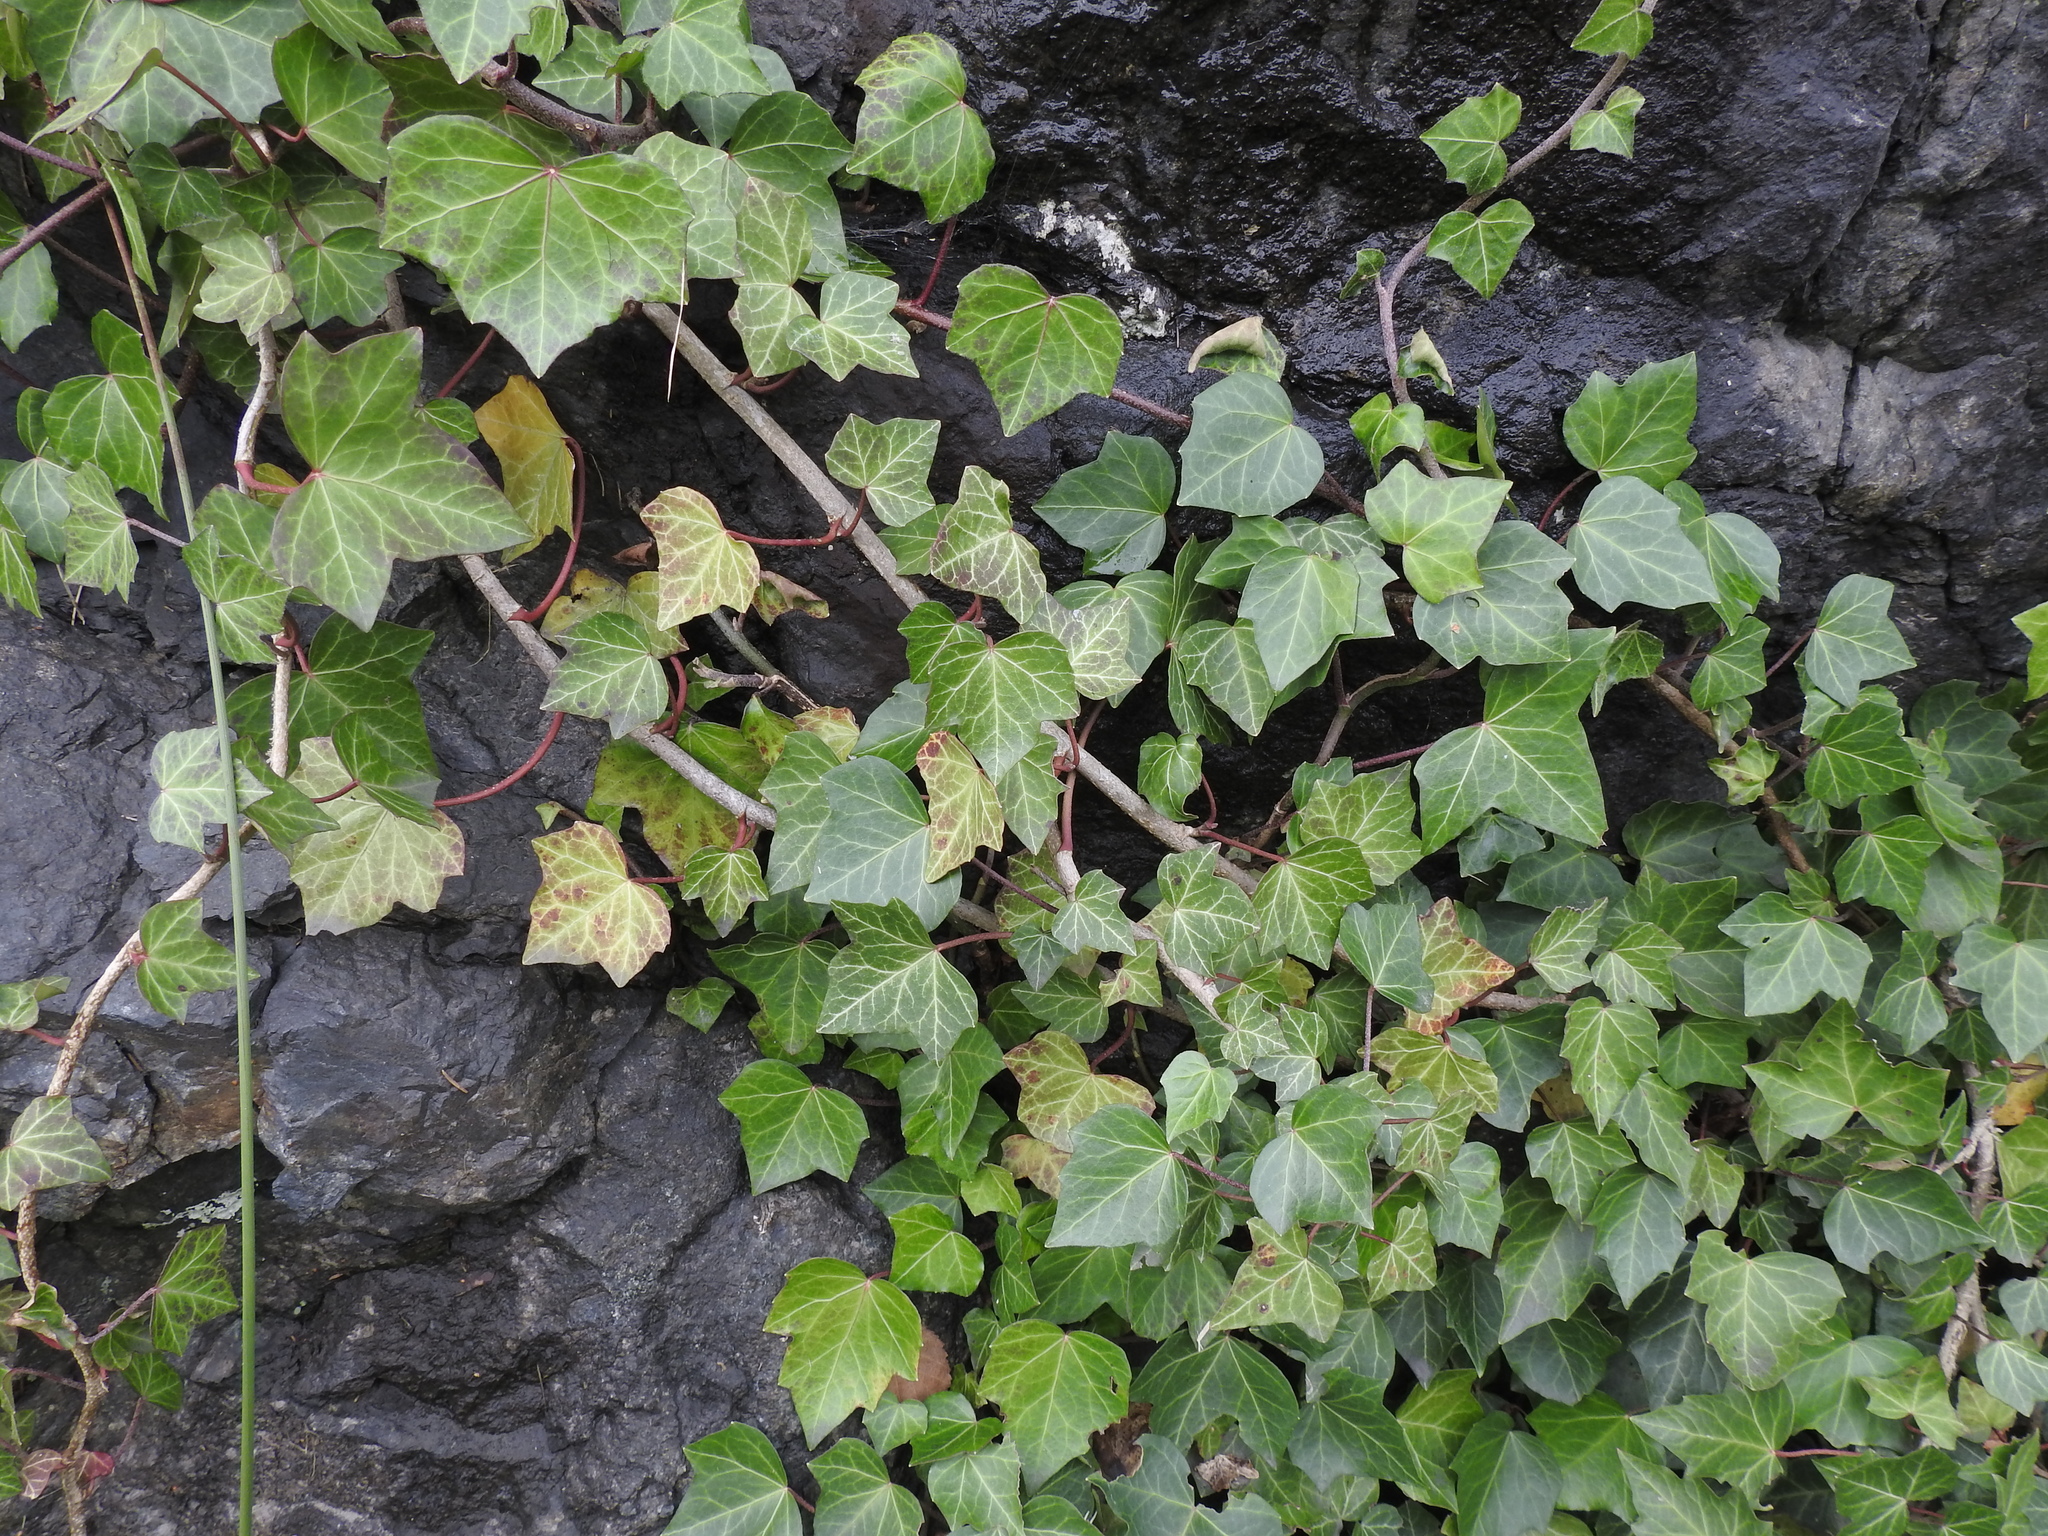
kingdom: Plantae
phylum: Tracheophyta
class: Magnoliopsida
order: Apiales
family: Araliaceae
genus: Hedera
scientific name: Hedera helix
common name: Ivy
